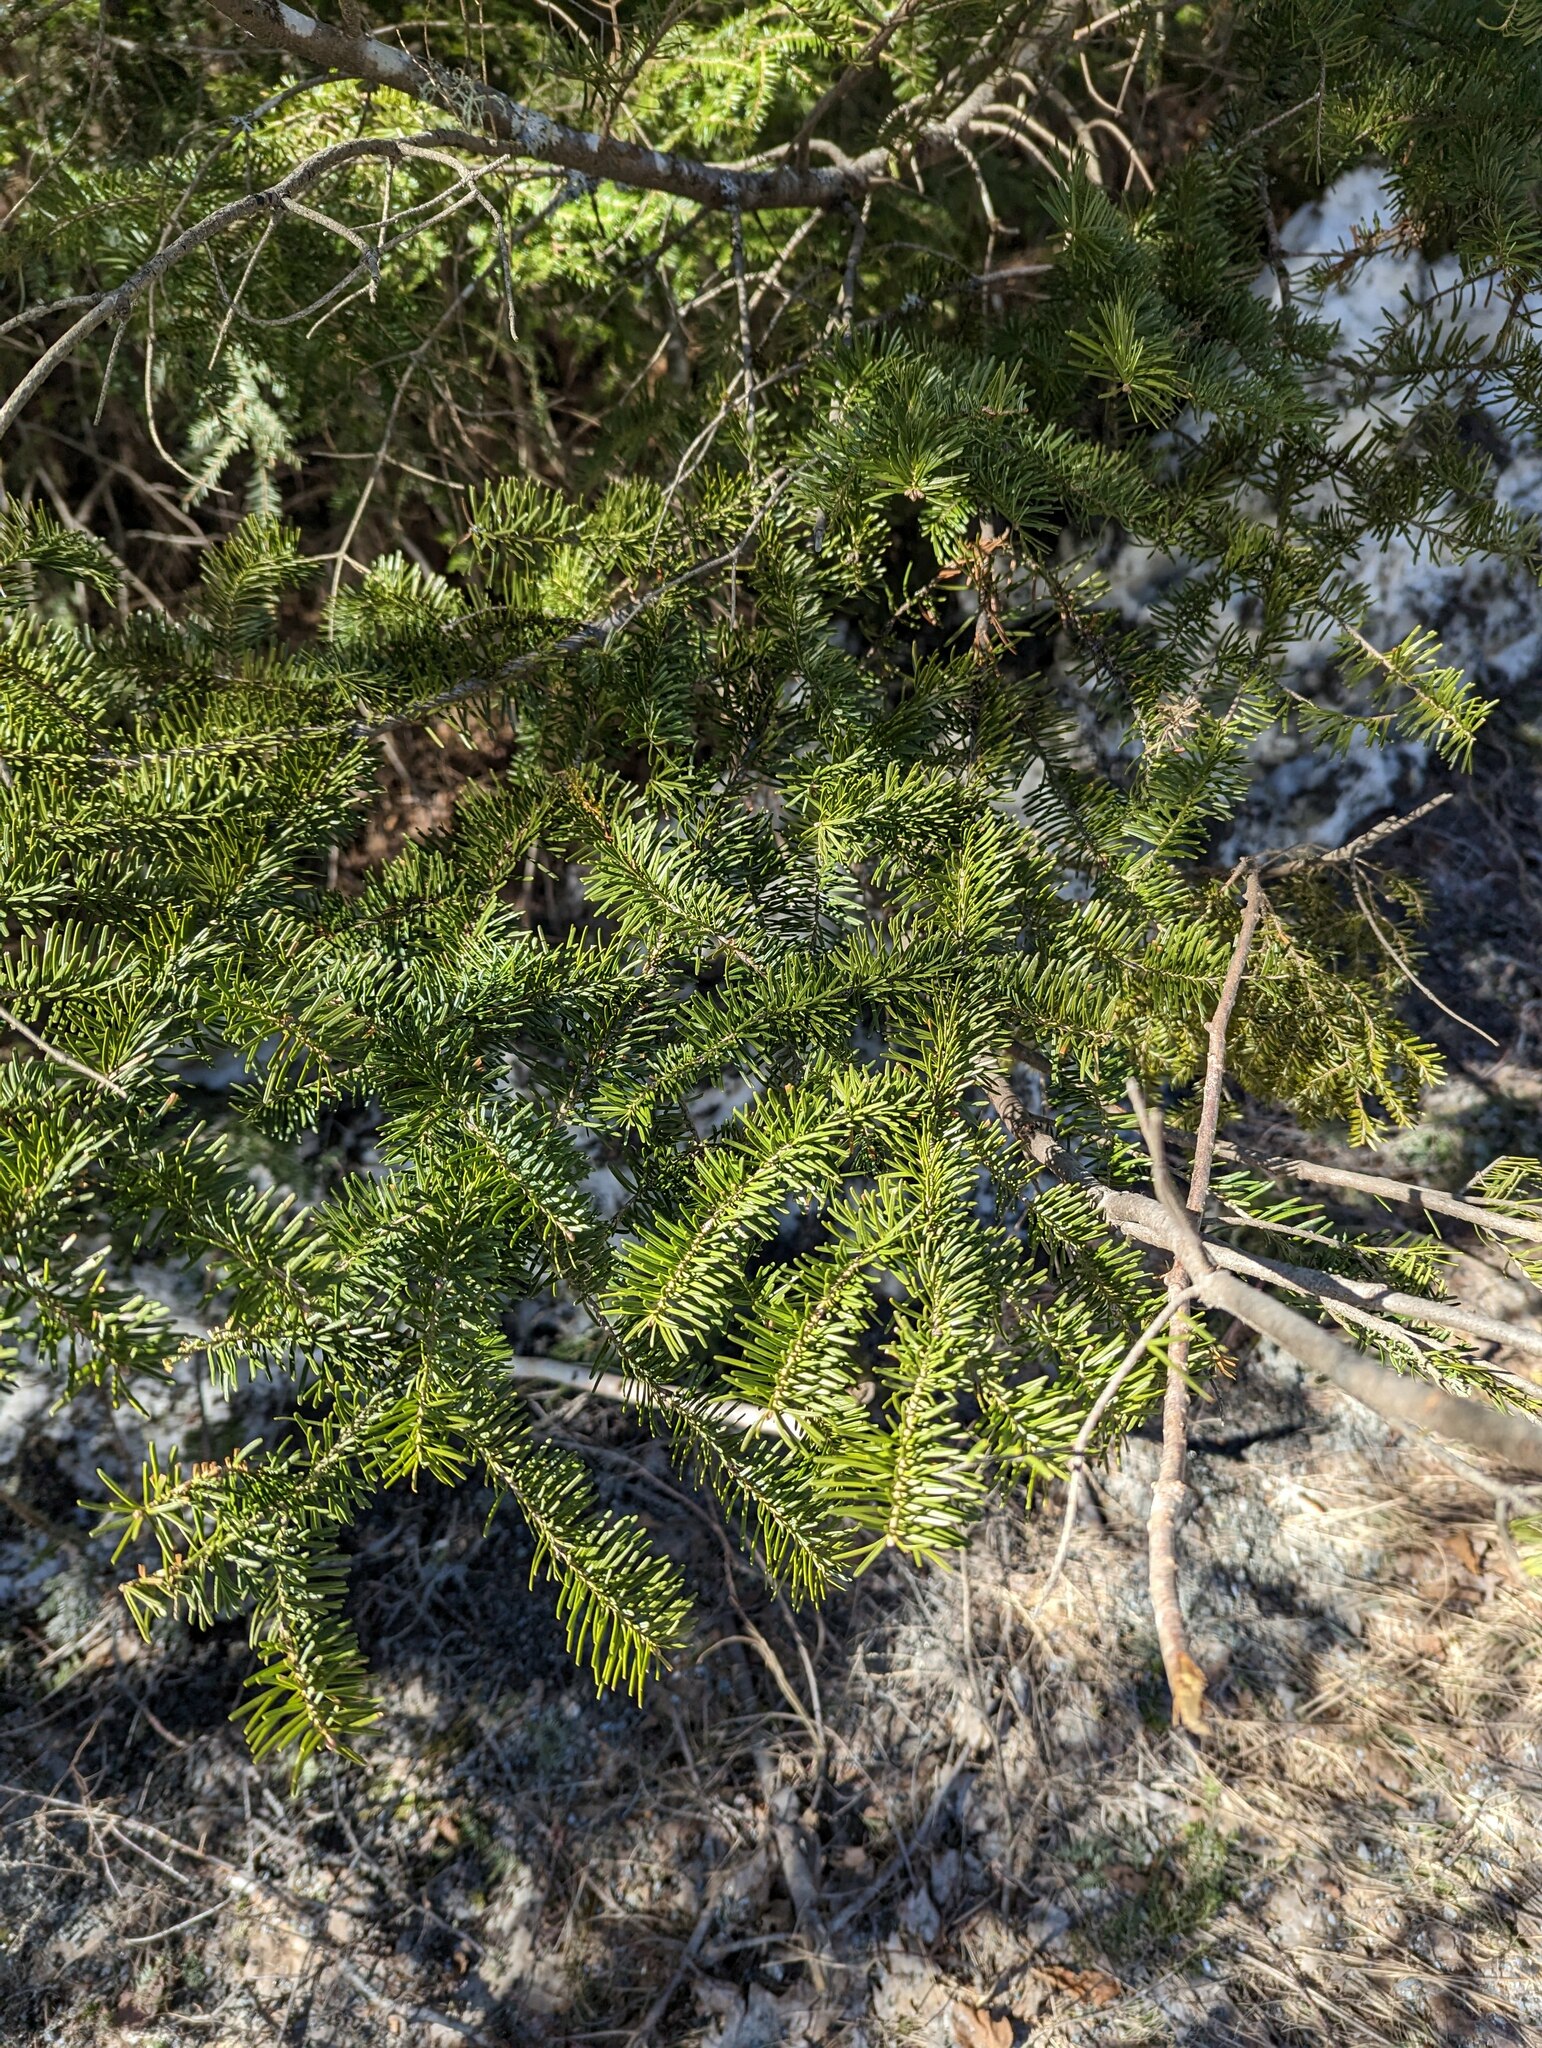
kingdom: Plantae
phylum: Tracheophyta
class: Pinopsida
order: Pinales
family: Pinaceae
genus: Abies
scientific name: Abies balsamea
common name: Balsam fir
